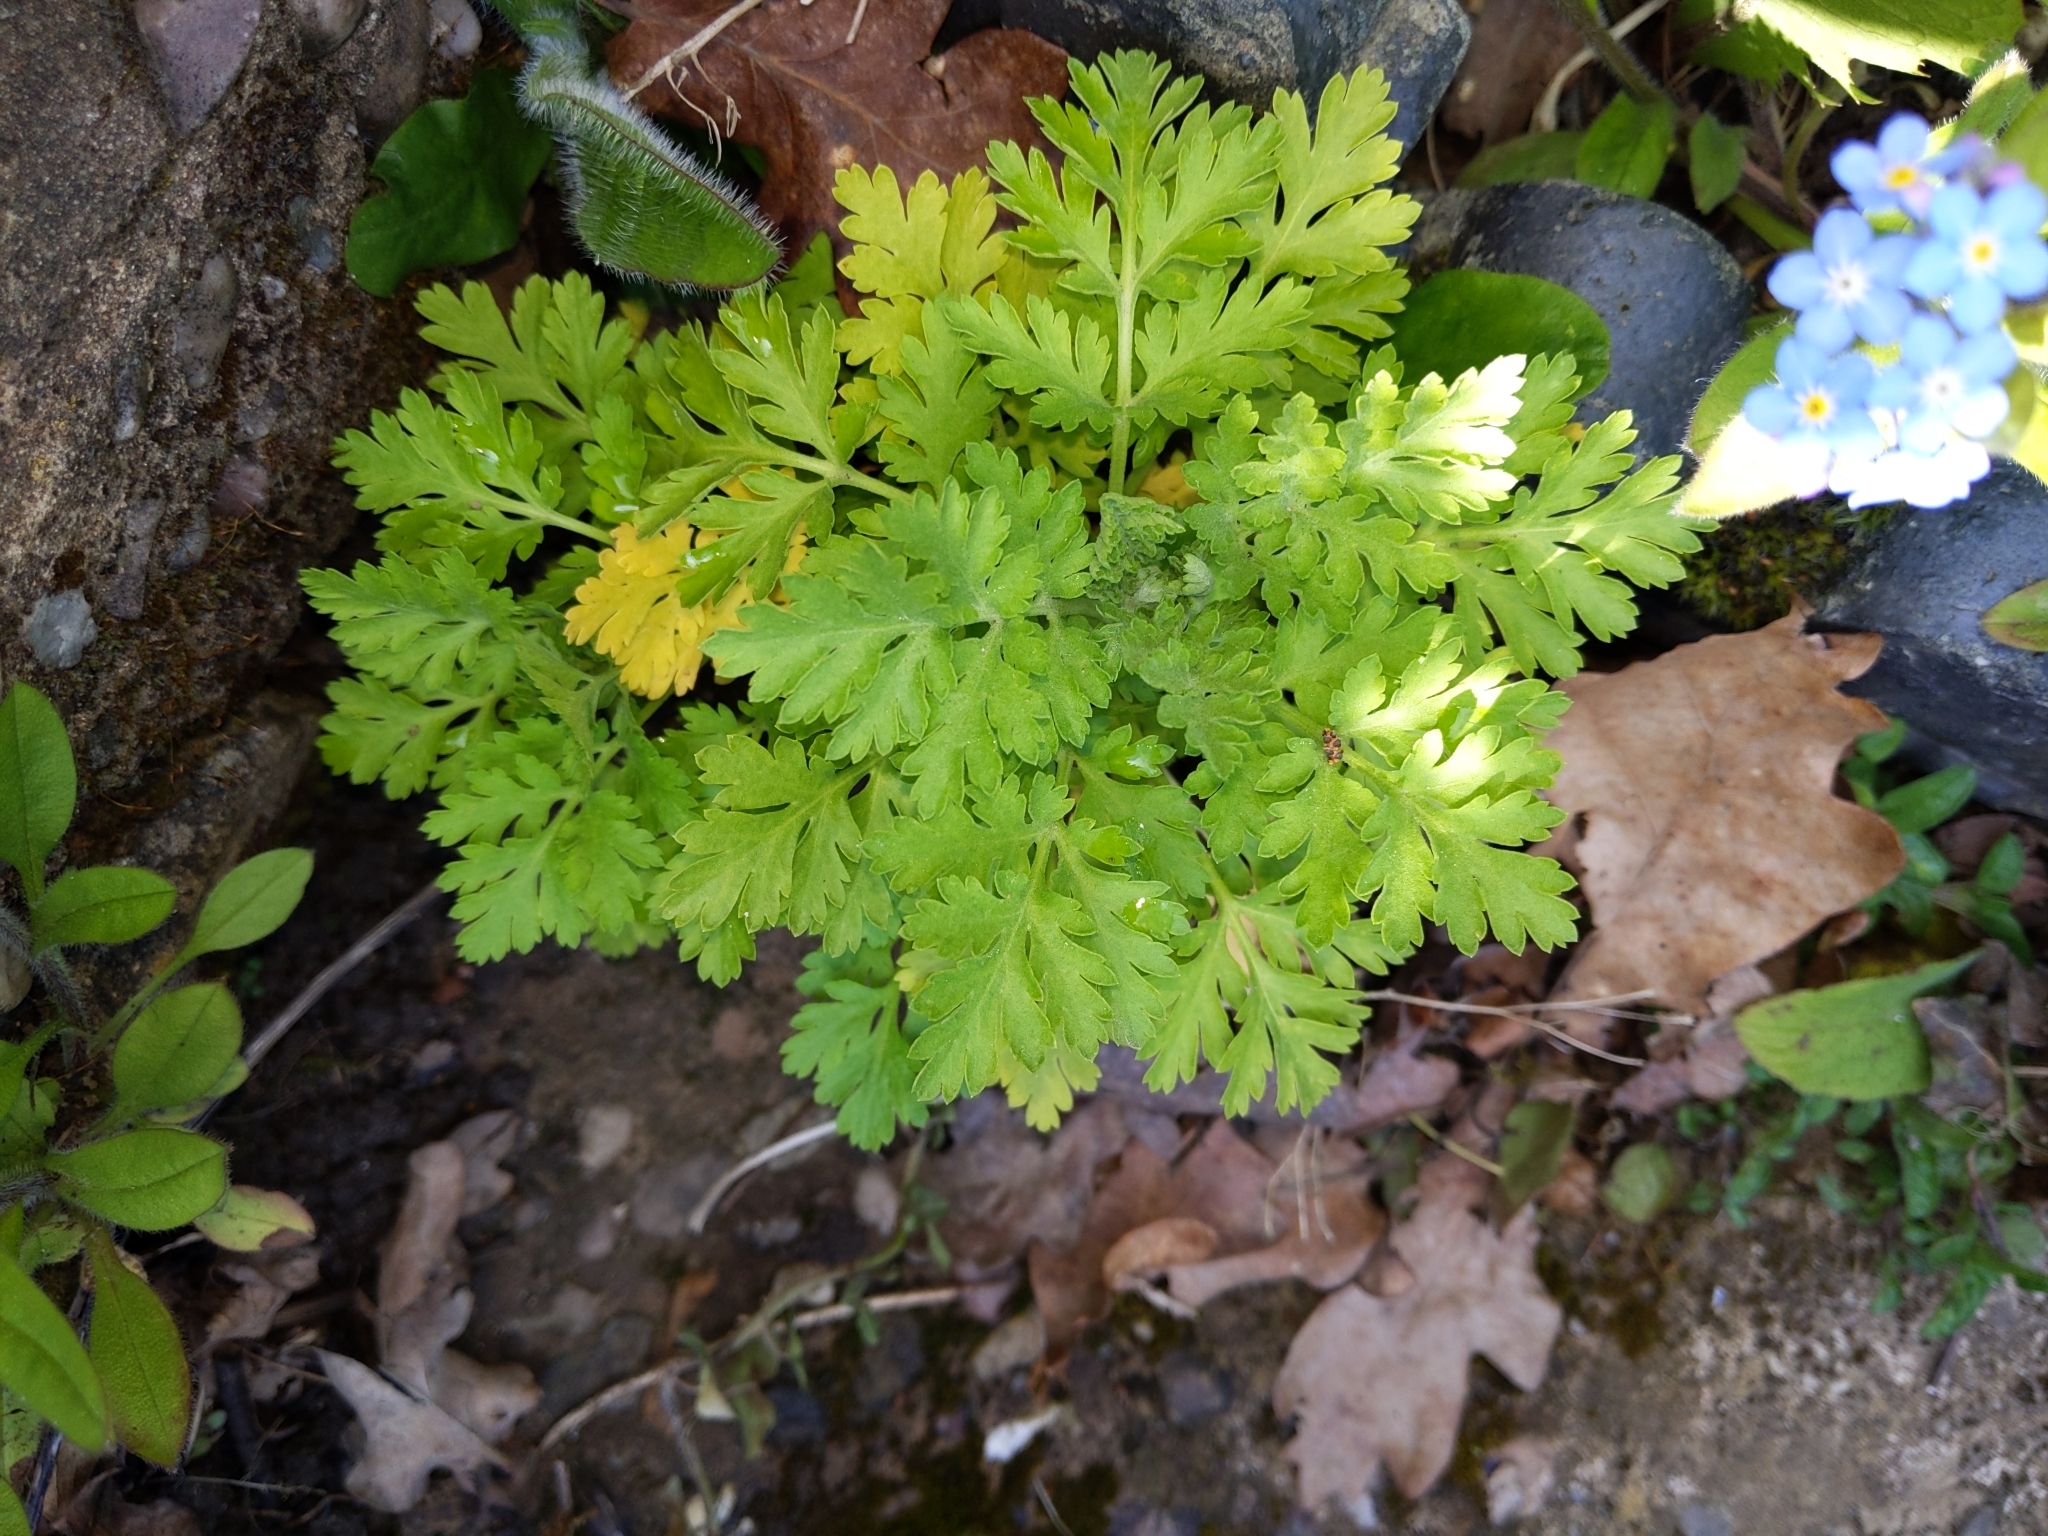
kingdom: Plantae
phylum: Tracheophyta
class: Magnoliopsida
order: Asterales
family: Asteraceae
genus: Tanacetum
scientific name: Tanacetum parthenium
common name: Feverfew
